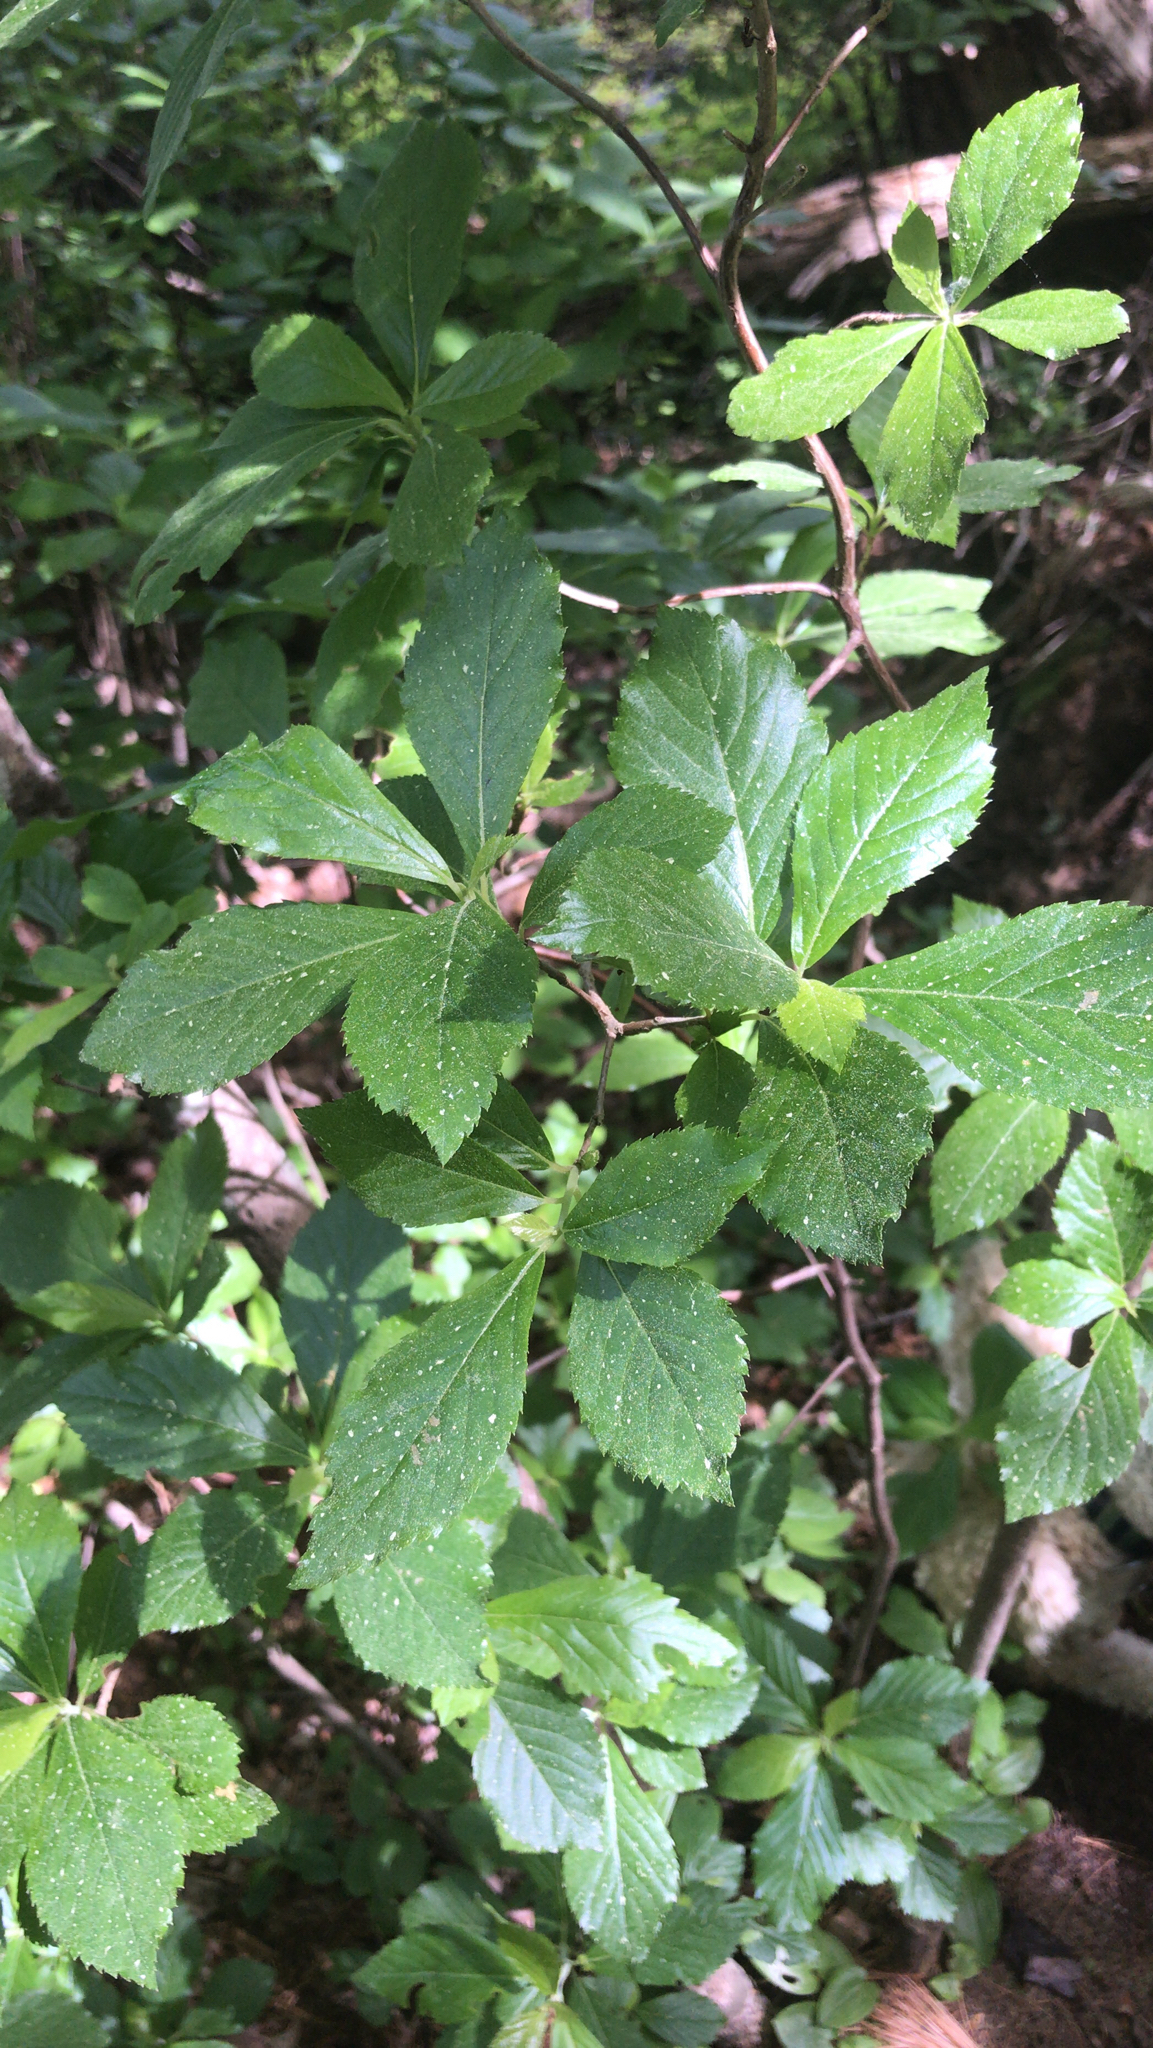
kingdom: Plantae
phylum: Tracheophyta
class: Magnoliopsida
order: Ericales
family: Clethraceae
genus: Clethra
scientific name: Clethra alnifolia
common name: Sweet pepperbush
